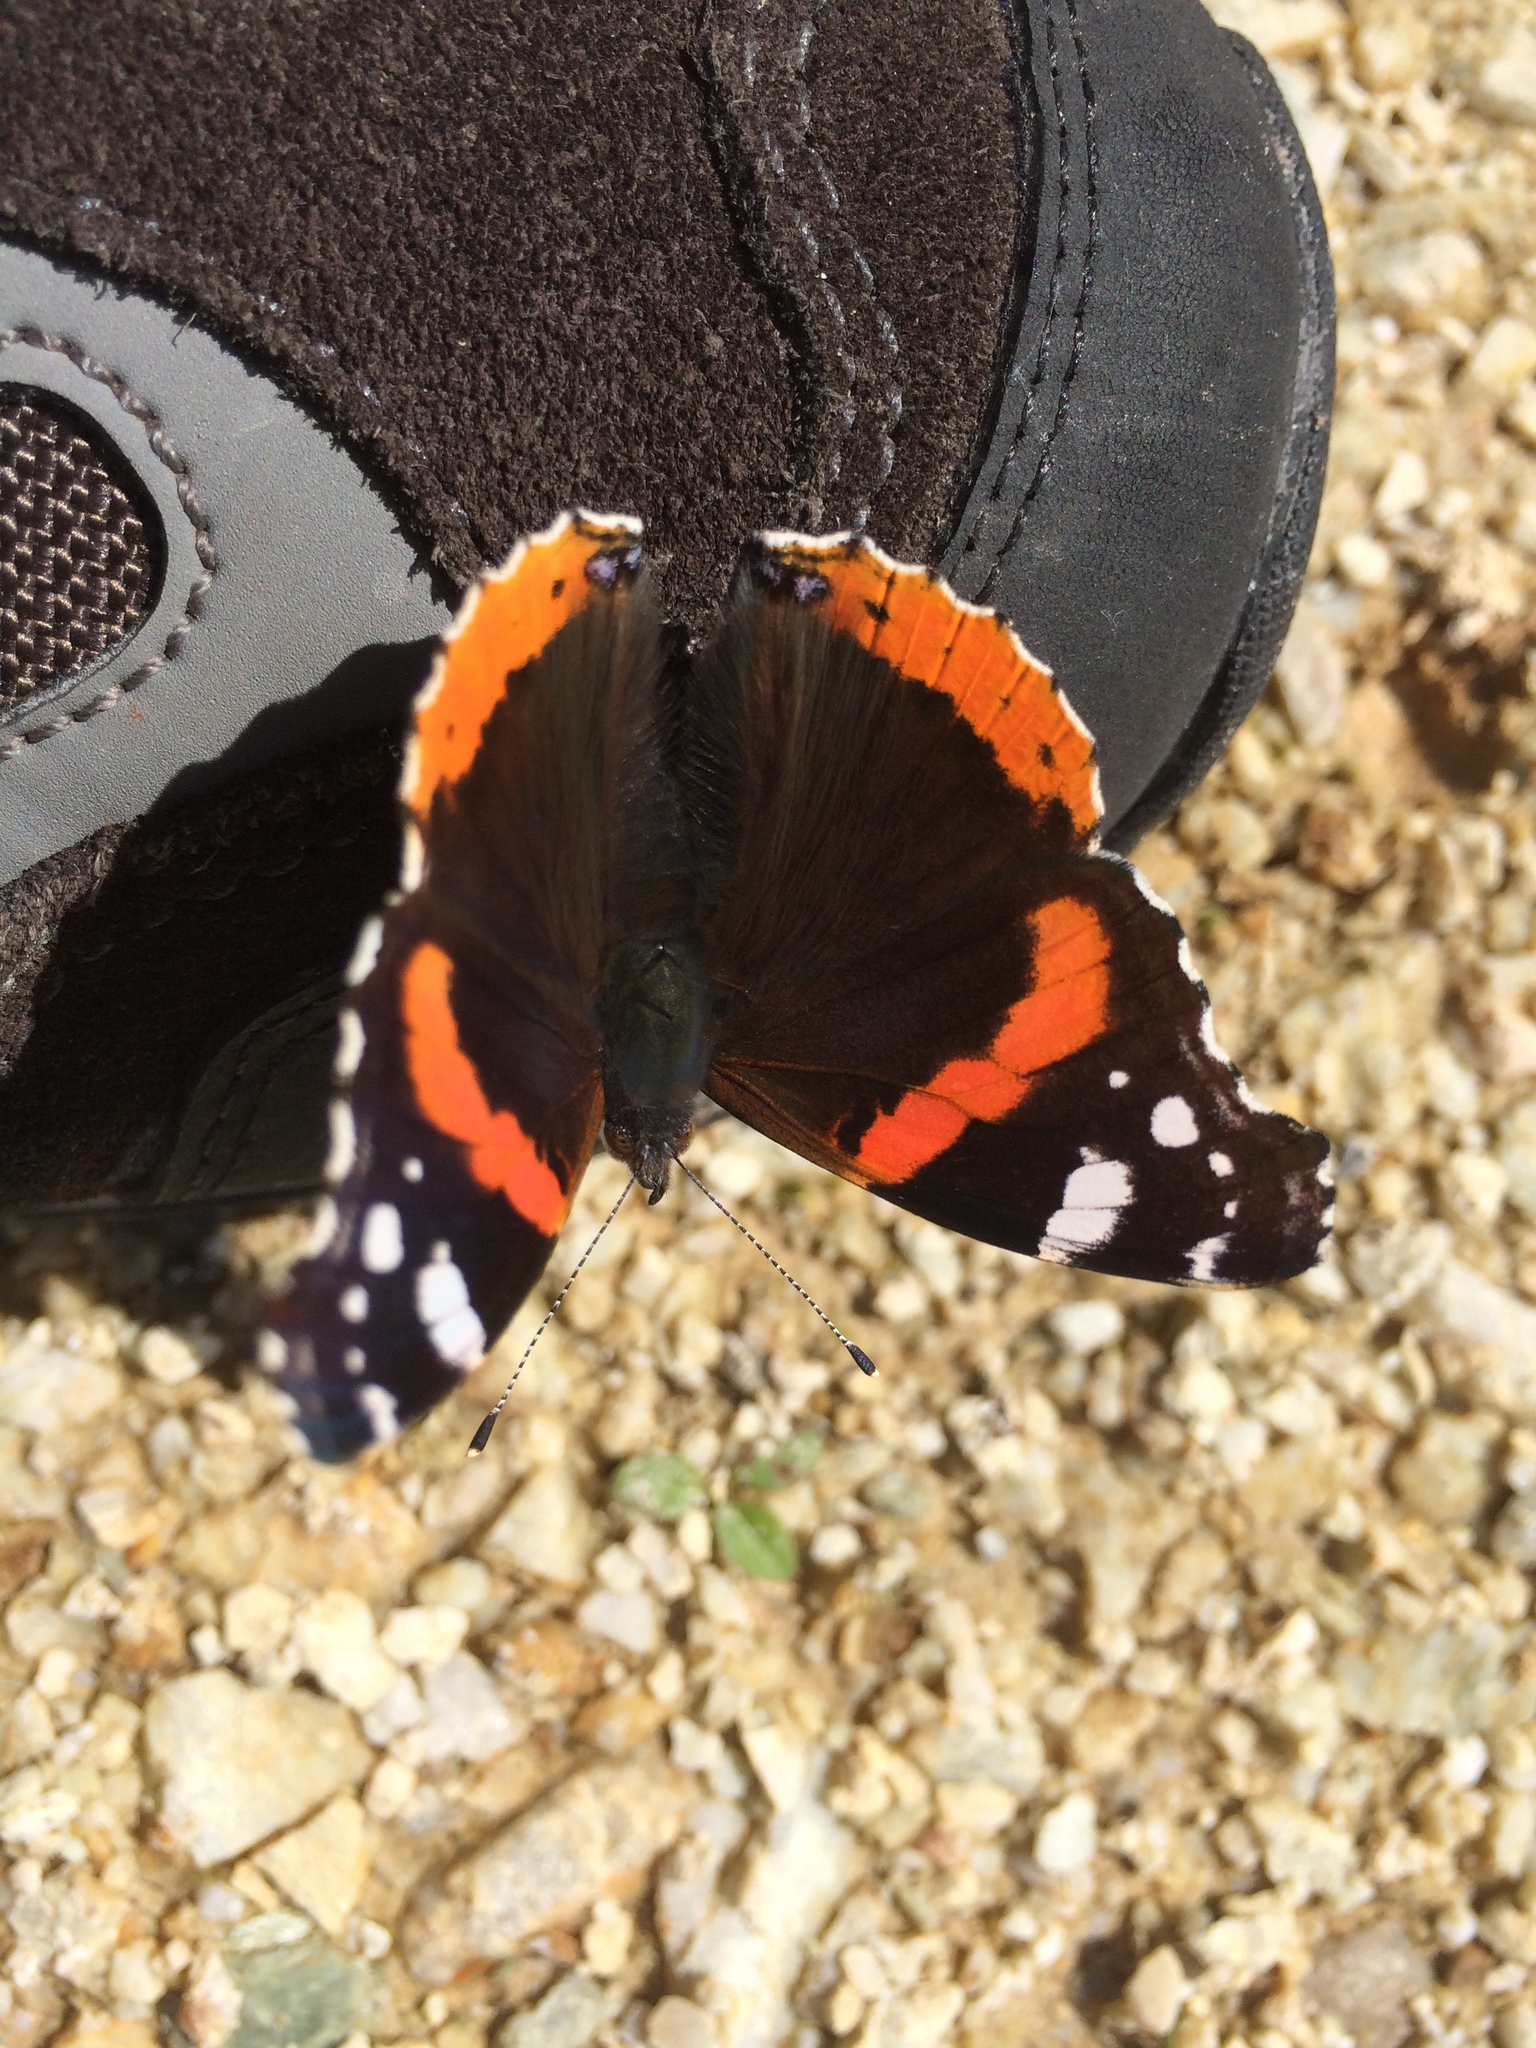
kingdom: Animalia
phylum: Arthropoda
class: Insecta
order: Lepidoptera
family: Nymphalidae
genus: Vanessa
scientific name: Vanessa atalanta
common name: Red admiral
